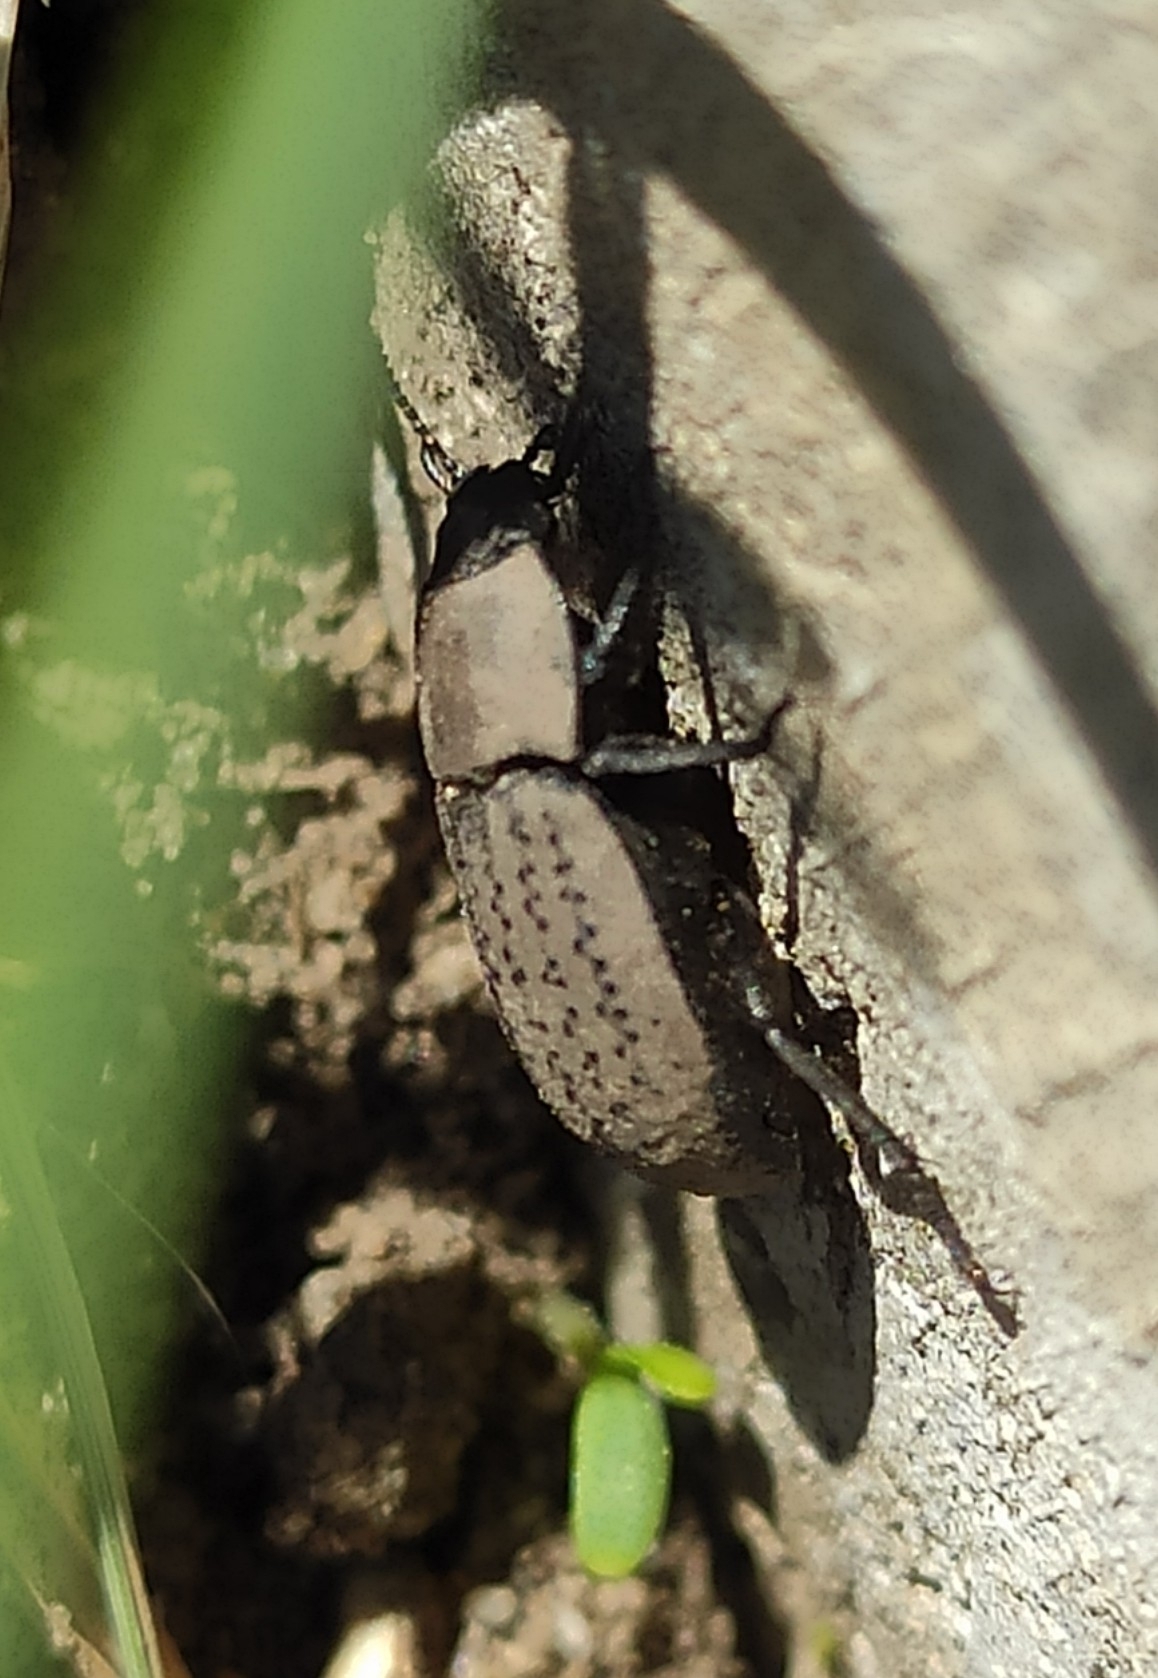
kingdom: Animalia
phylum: Arthropoda
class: Insecta
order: Coleoptera
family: Tenebrionidae
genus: Opatrum
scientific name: Opatrum sabulosum
